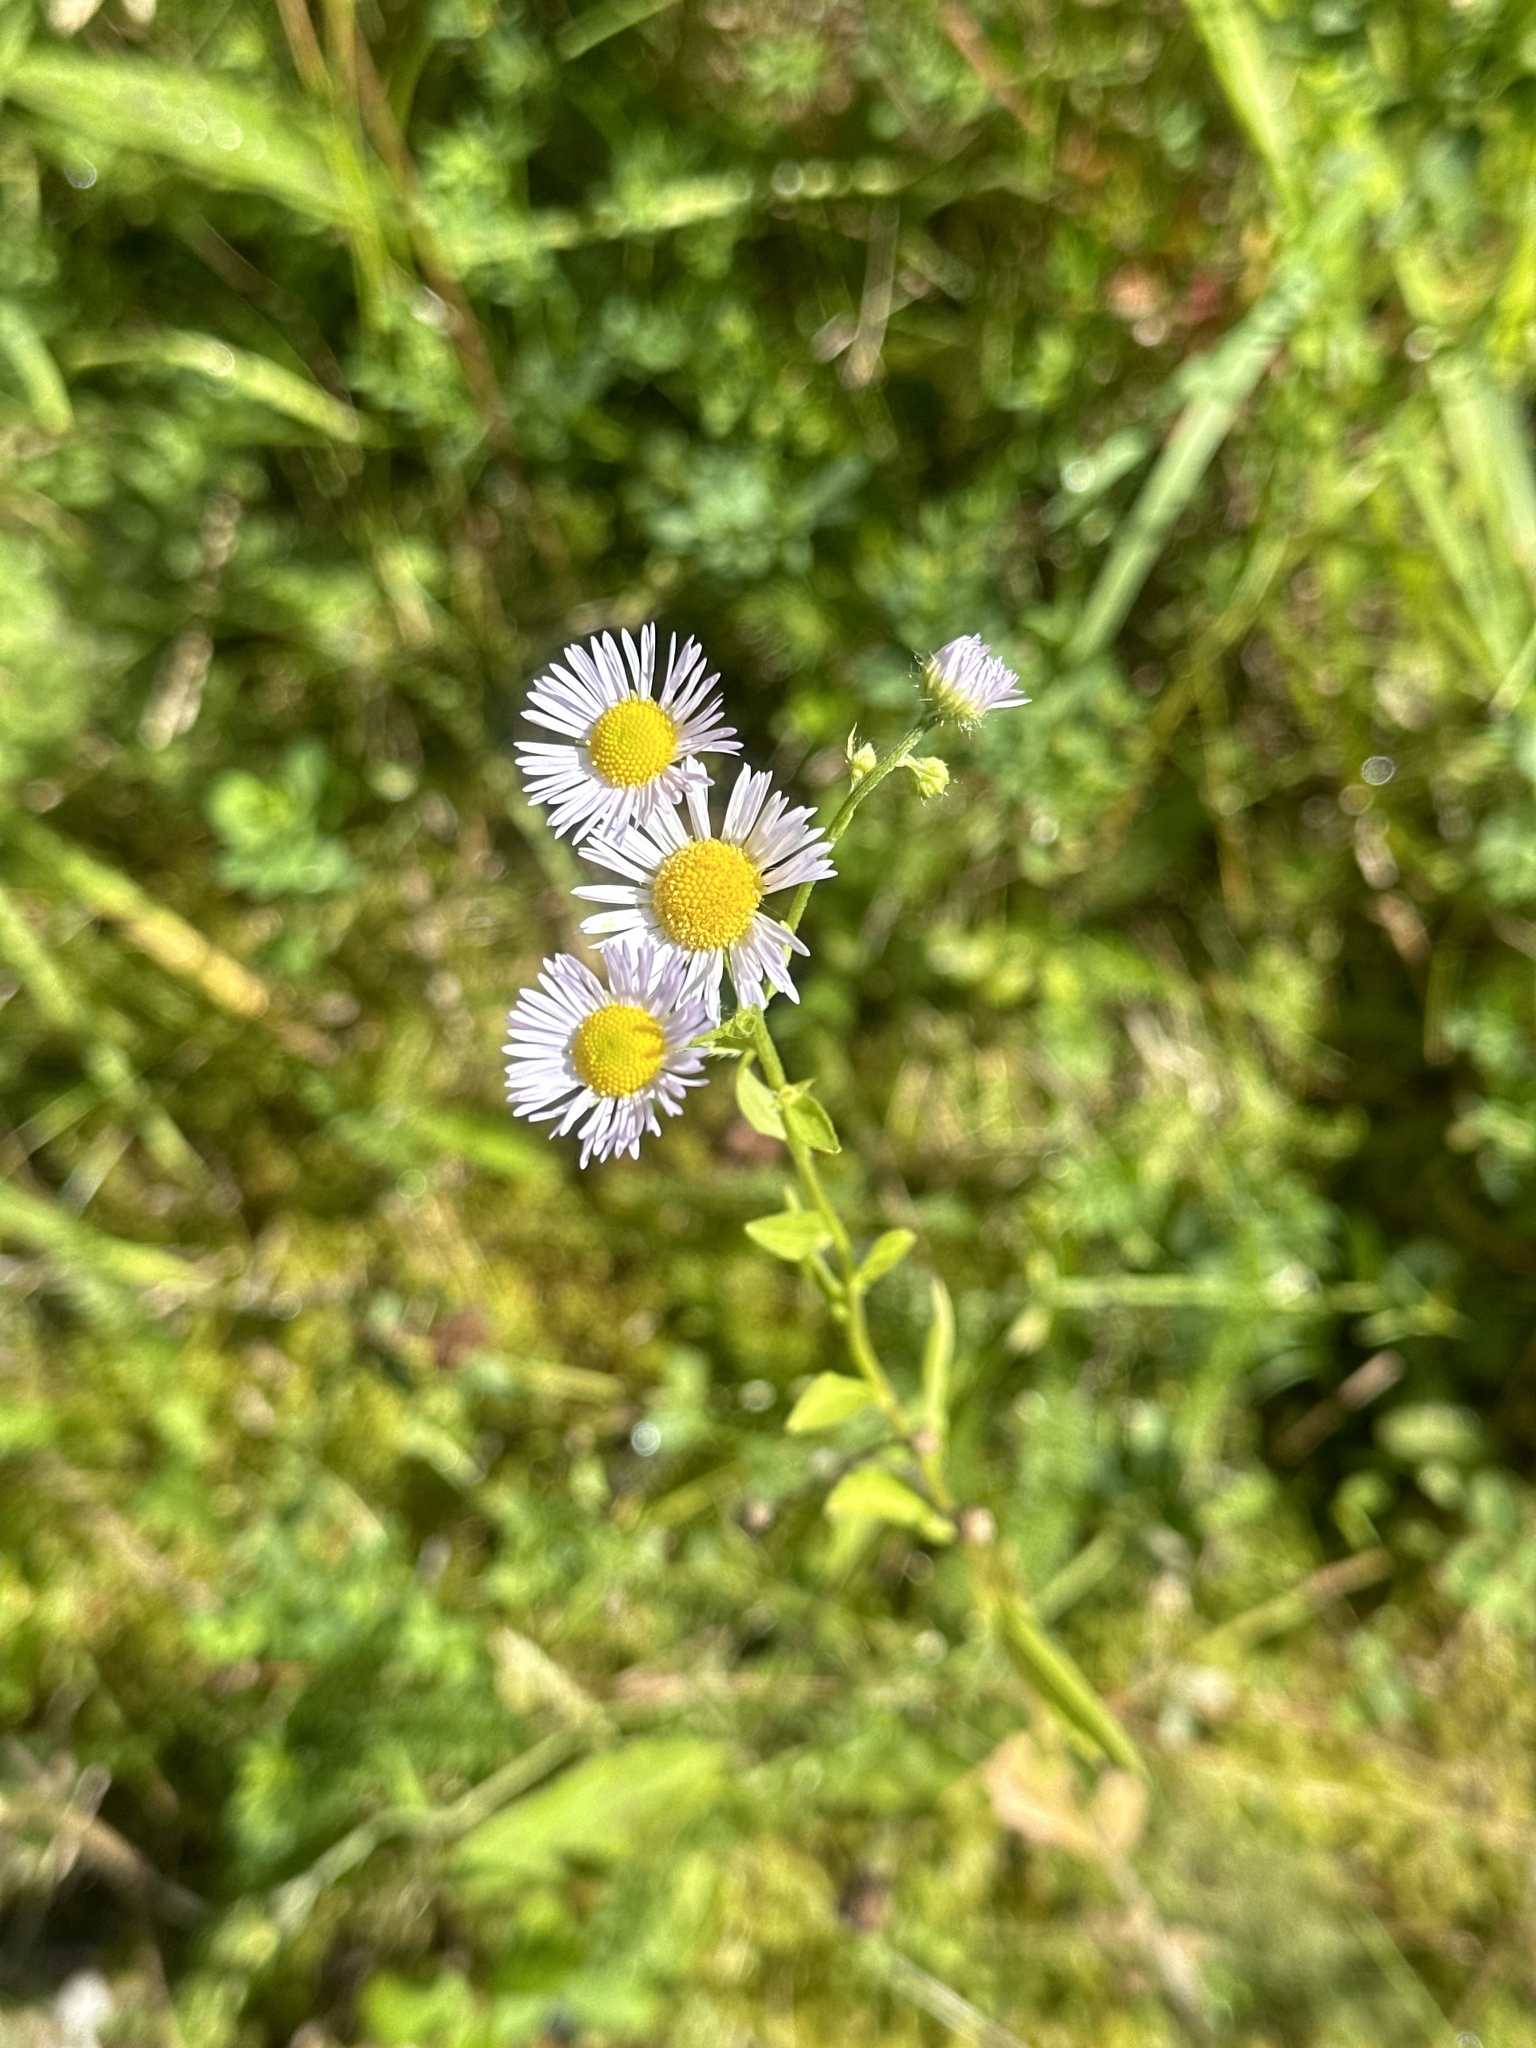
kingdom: Plantae
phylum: Tracheophyta
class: Magnoliopsida
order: Asterales
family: Asteraceae
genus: Erigeron
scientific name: Erigeron annuus
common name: Tall fleabane
